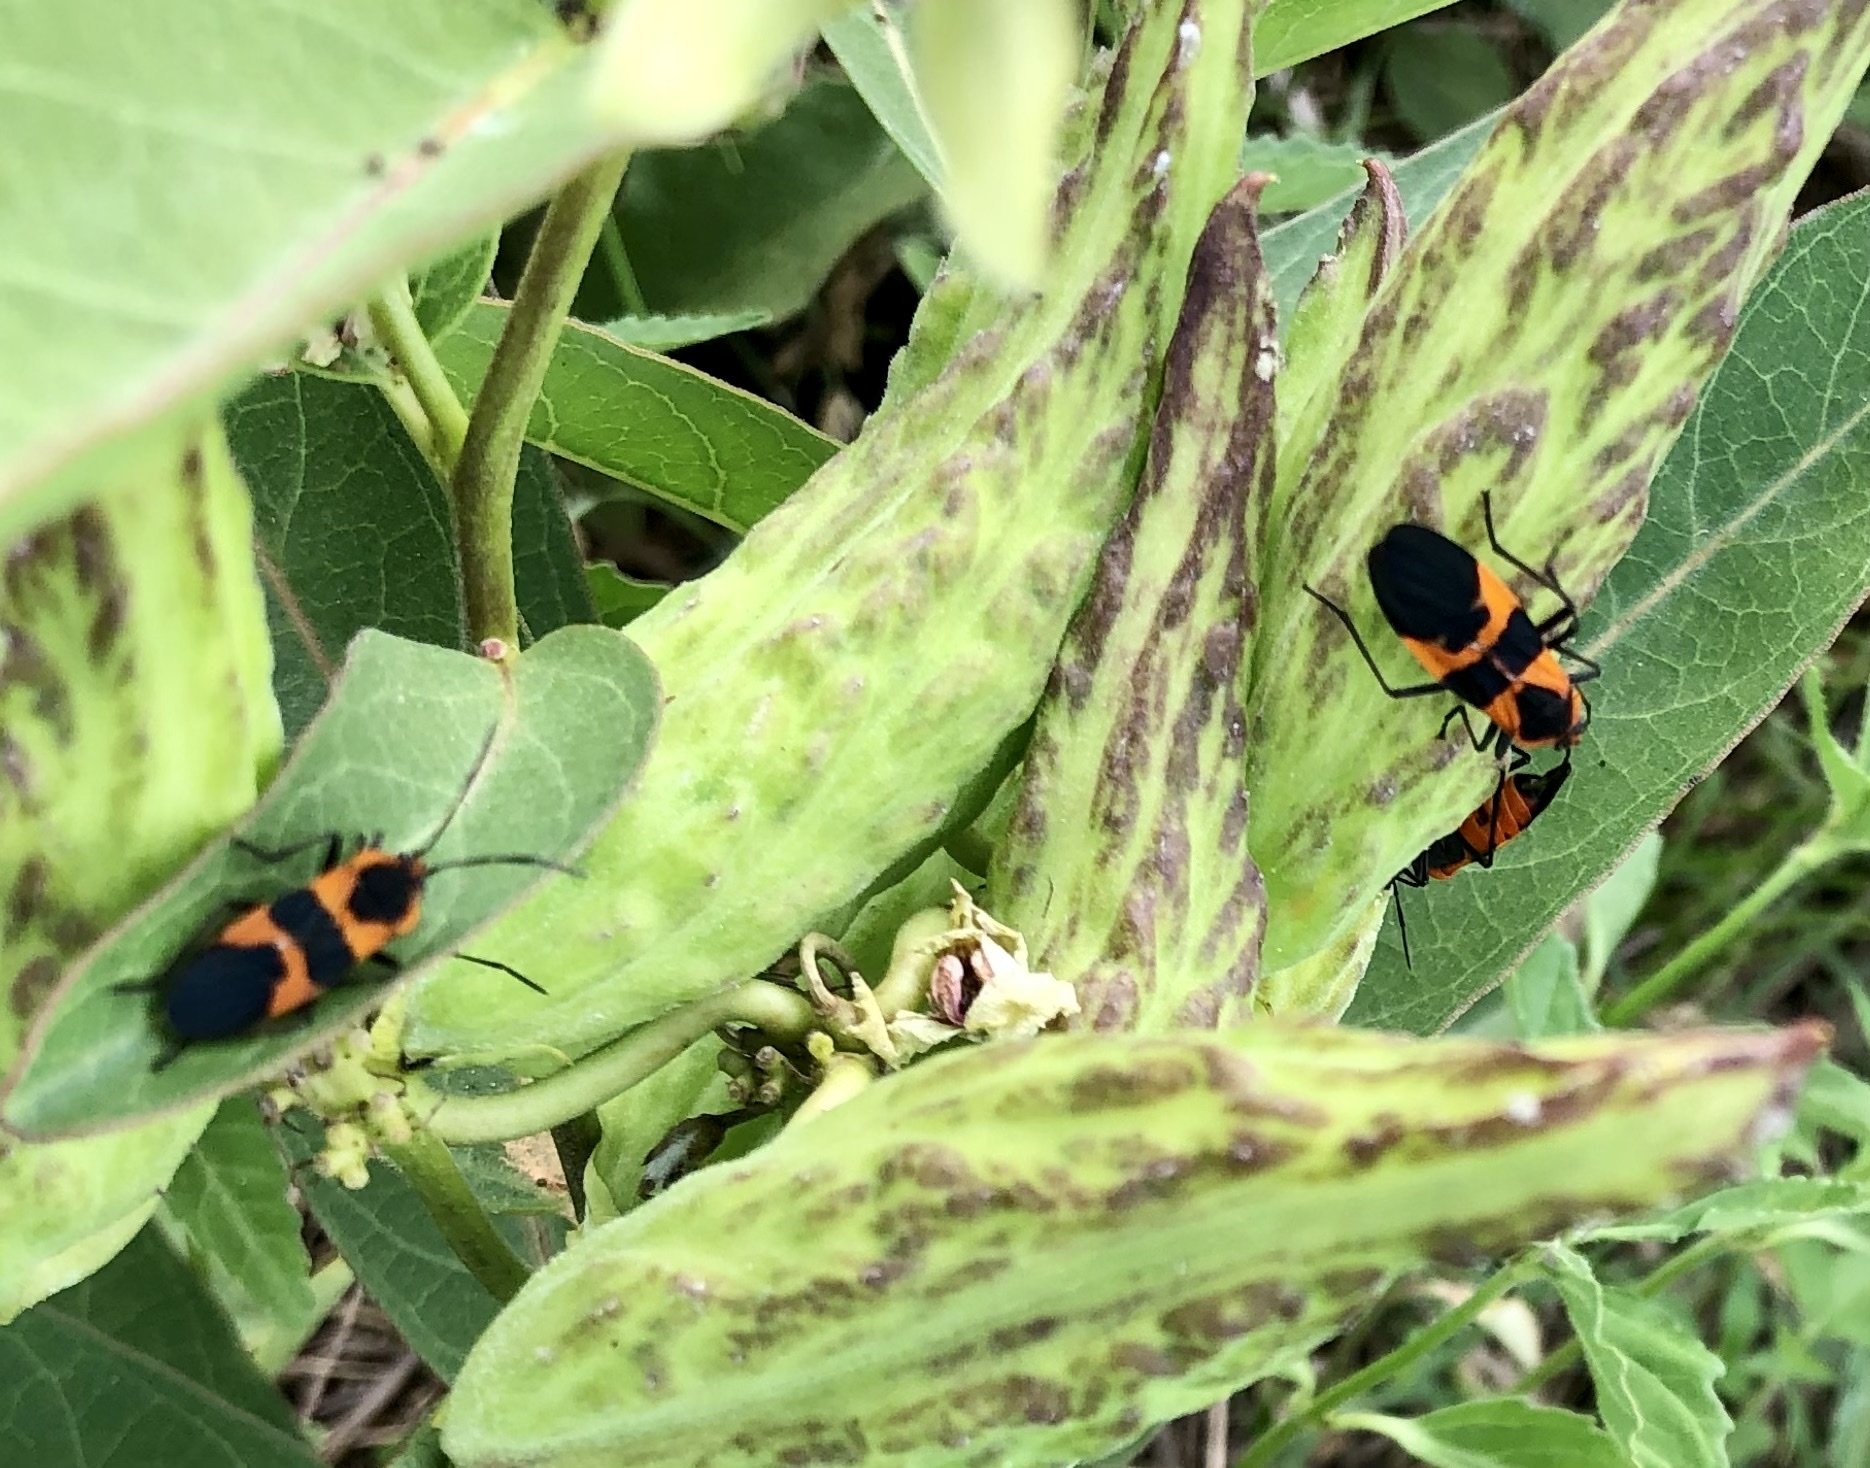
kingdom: Animalia
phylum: Arthropoda
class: Insecta
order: Hemiptera
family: Lygaeidae
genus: Oncopeltus
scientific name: Oncopeltus fasciatus
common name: Large milkweed bug
